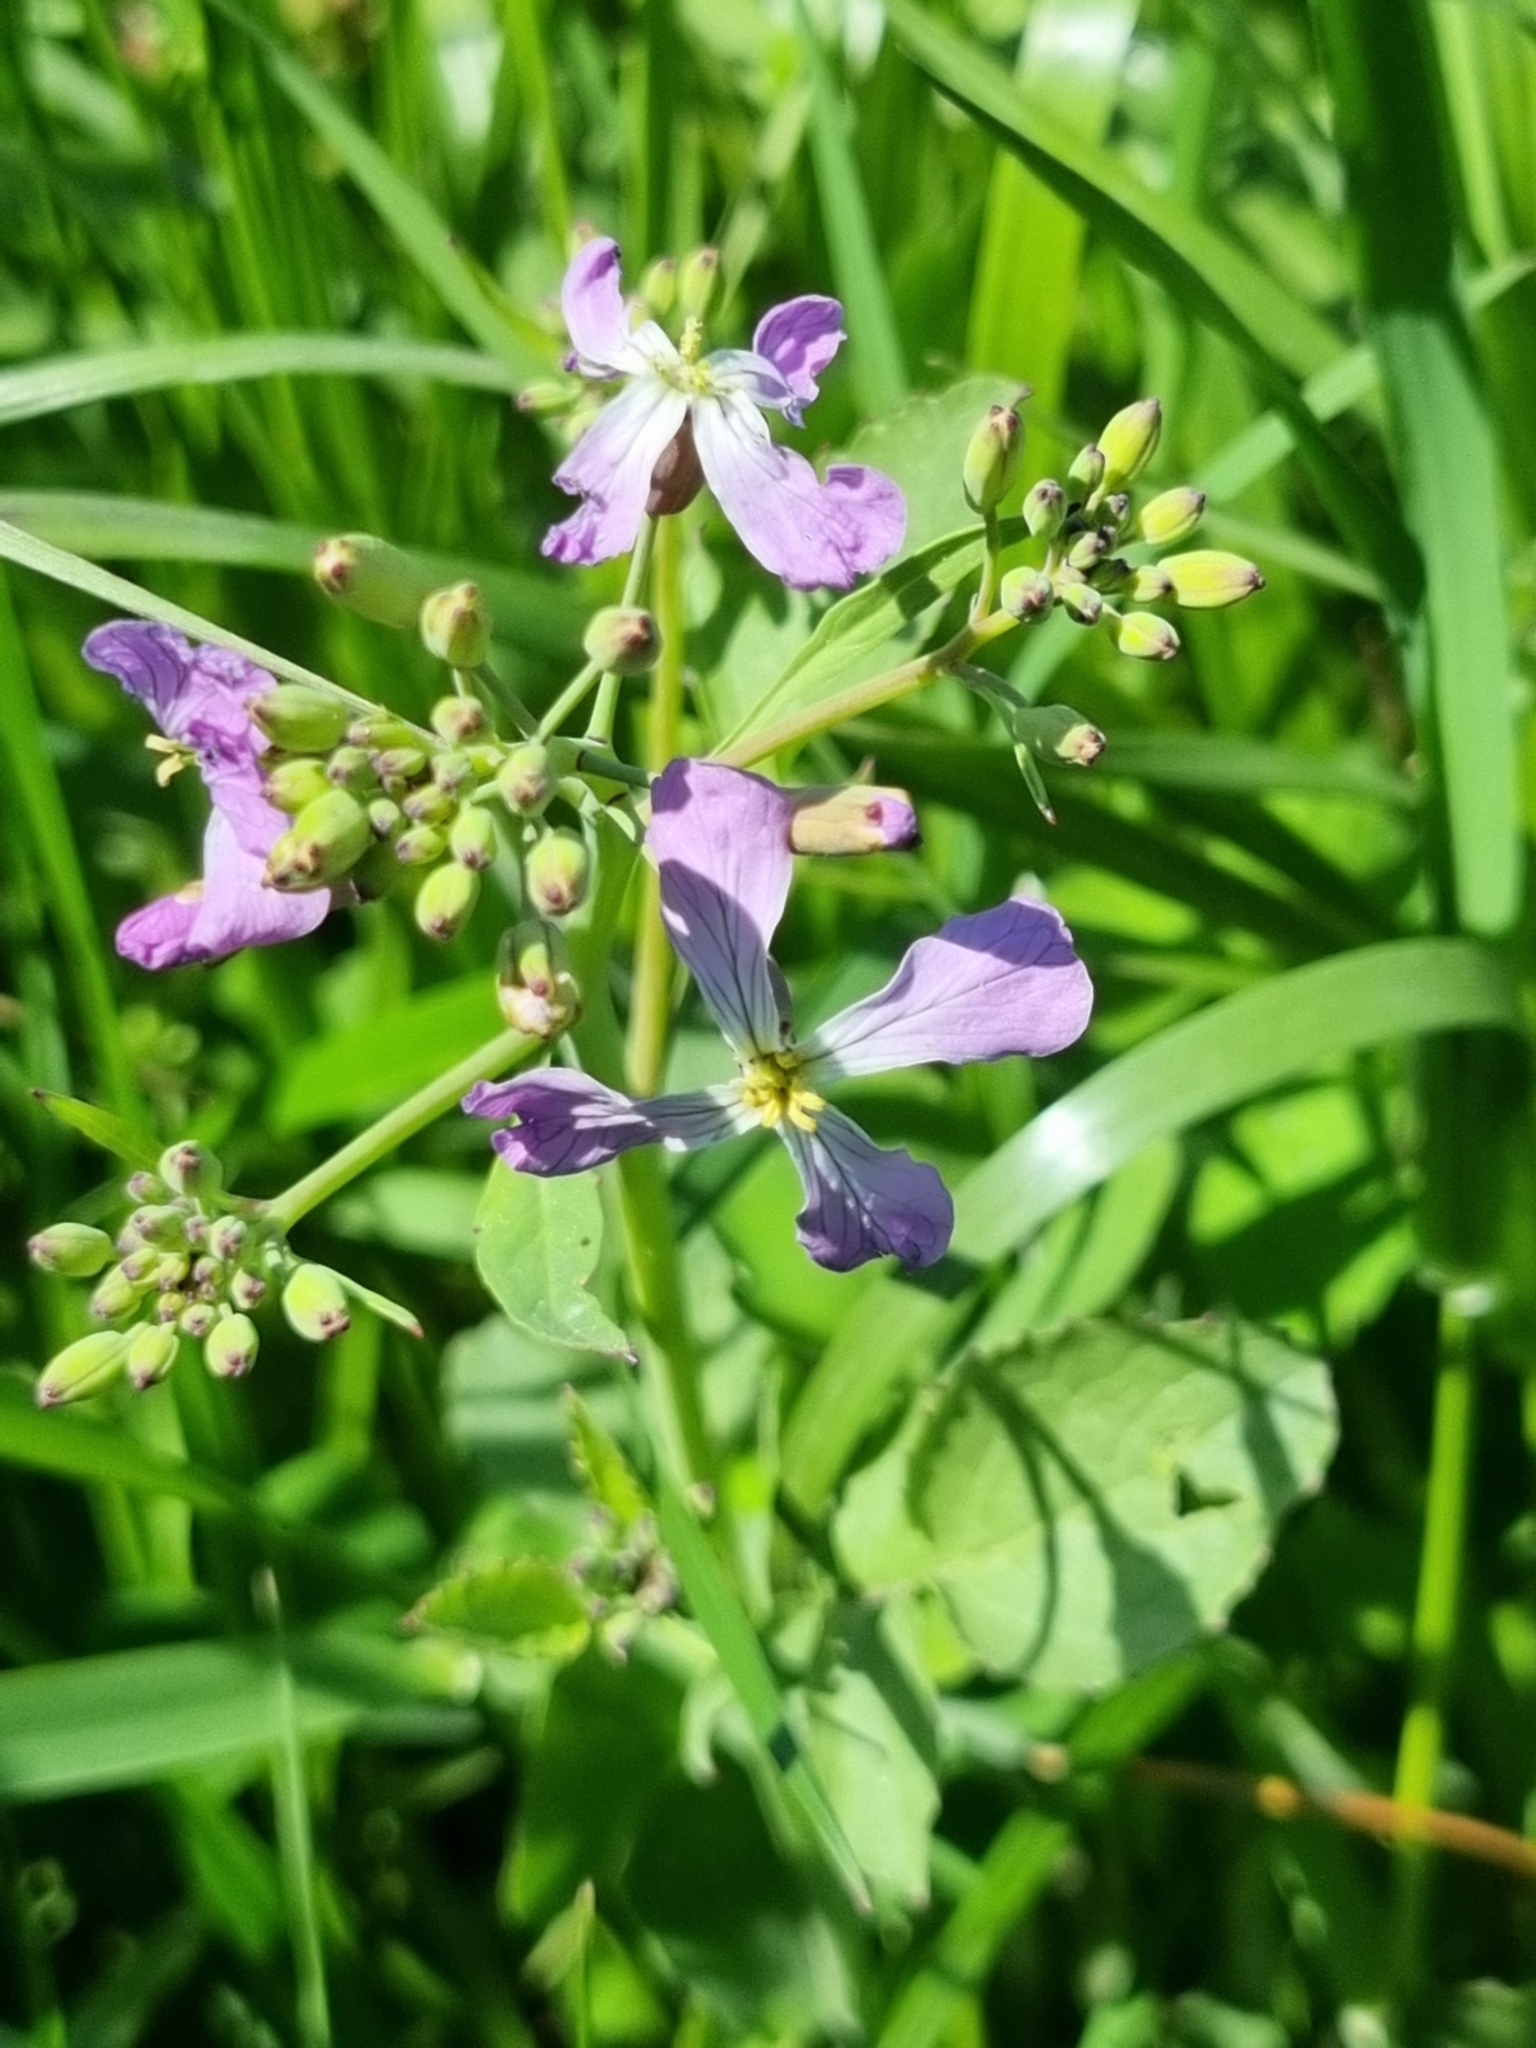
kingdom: Plantae
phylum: Tracheophyta
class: Magnoliopsida
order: Brassicales
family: Brassicaceae
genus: Raphanus
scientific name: Raphanus sativus
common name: Cultivated radish
